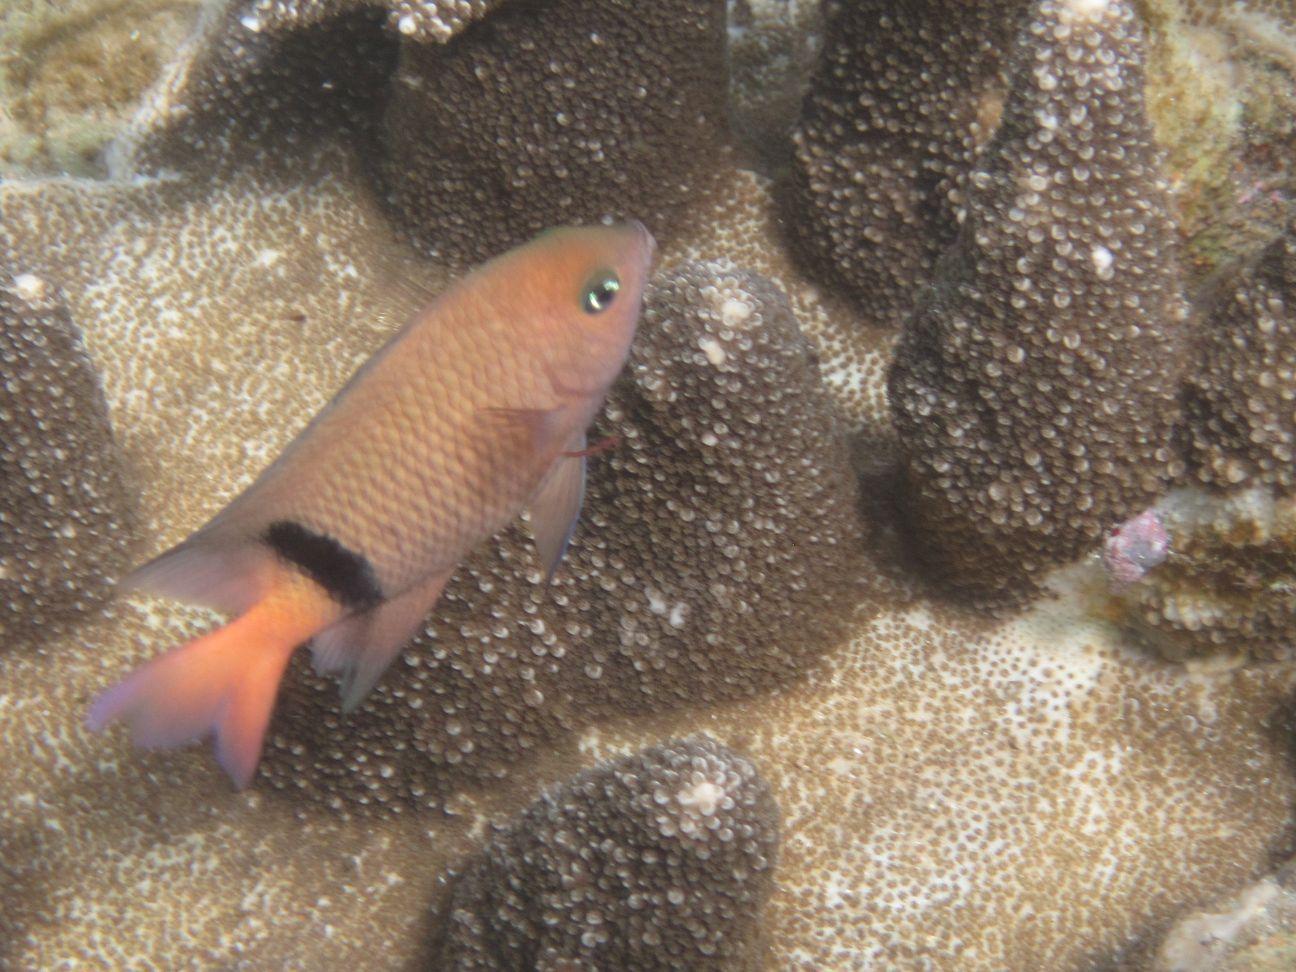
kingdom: Animalia
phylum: Chordata
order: Perciformes
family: Pomacentridae
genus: Plectroglyphidodon
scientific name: Plectroglyphidodon dickii
